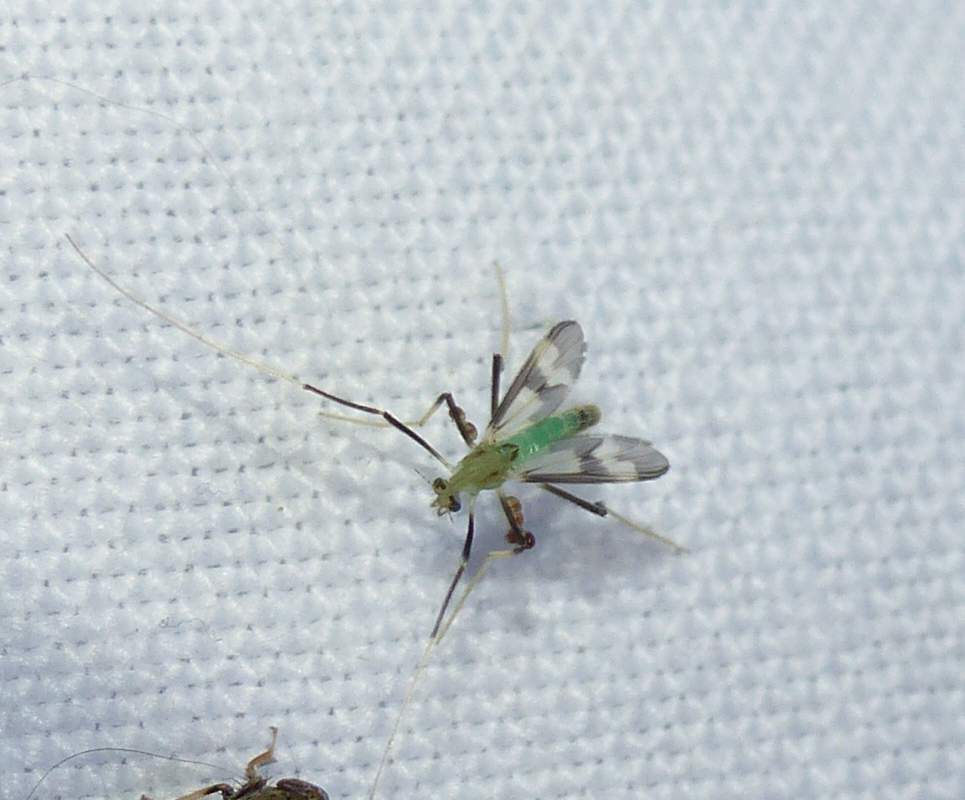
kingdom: Animalia
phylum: Arthropoda
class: Insecta
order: Diptera
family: Chironomidae
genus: Stenochironomus
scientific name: Stenochironomus hilaris
